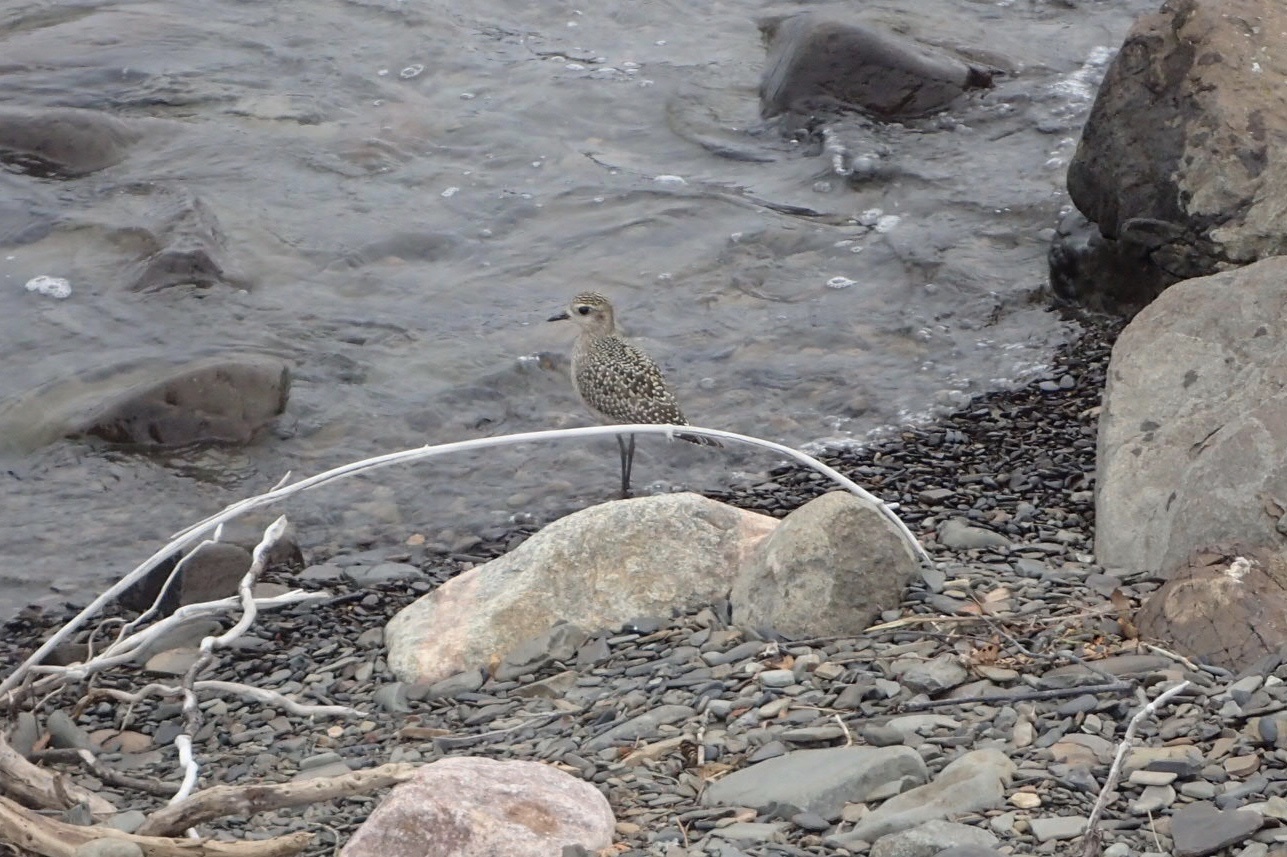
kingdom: Animalia
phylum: Chordata
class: Aves
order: Charadriiformes
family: Charadriidae
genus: Pluvialis
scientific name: Pluvialis dominica
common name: American golden plover
